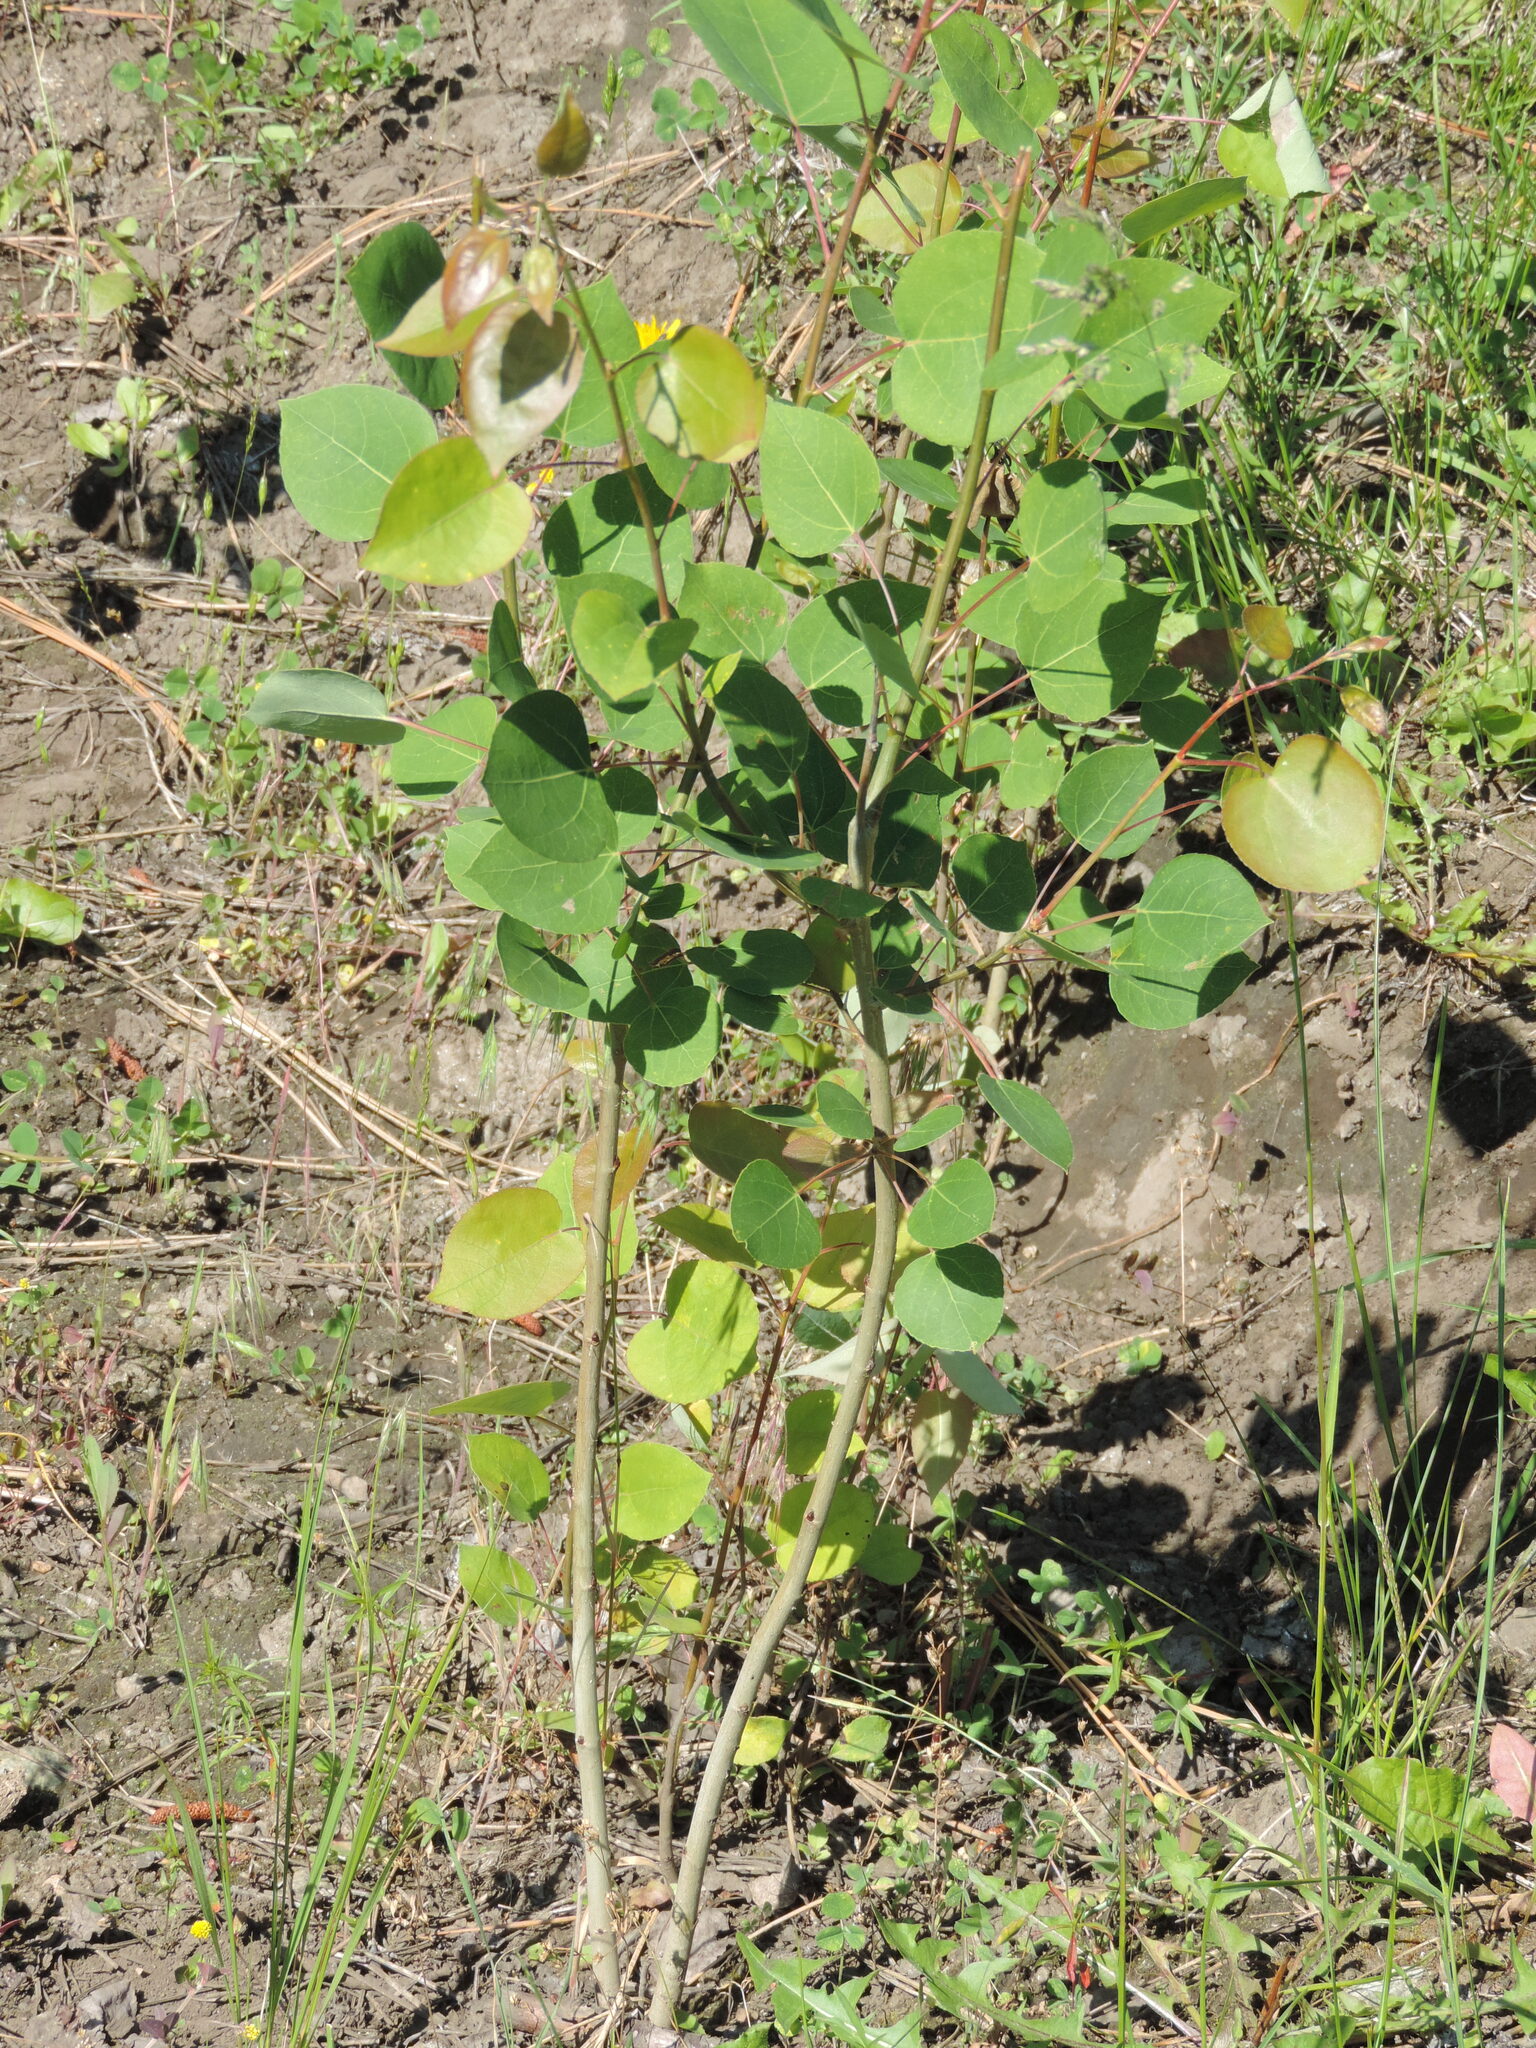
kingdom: Plantae
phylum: Tracheophyta
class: Magnoliopsida
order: Malpighiales
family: Salicaceae
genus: Populus
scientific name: Populus tremuloides
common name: Quaking aspen
